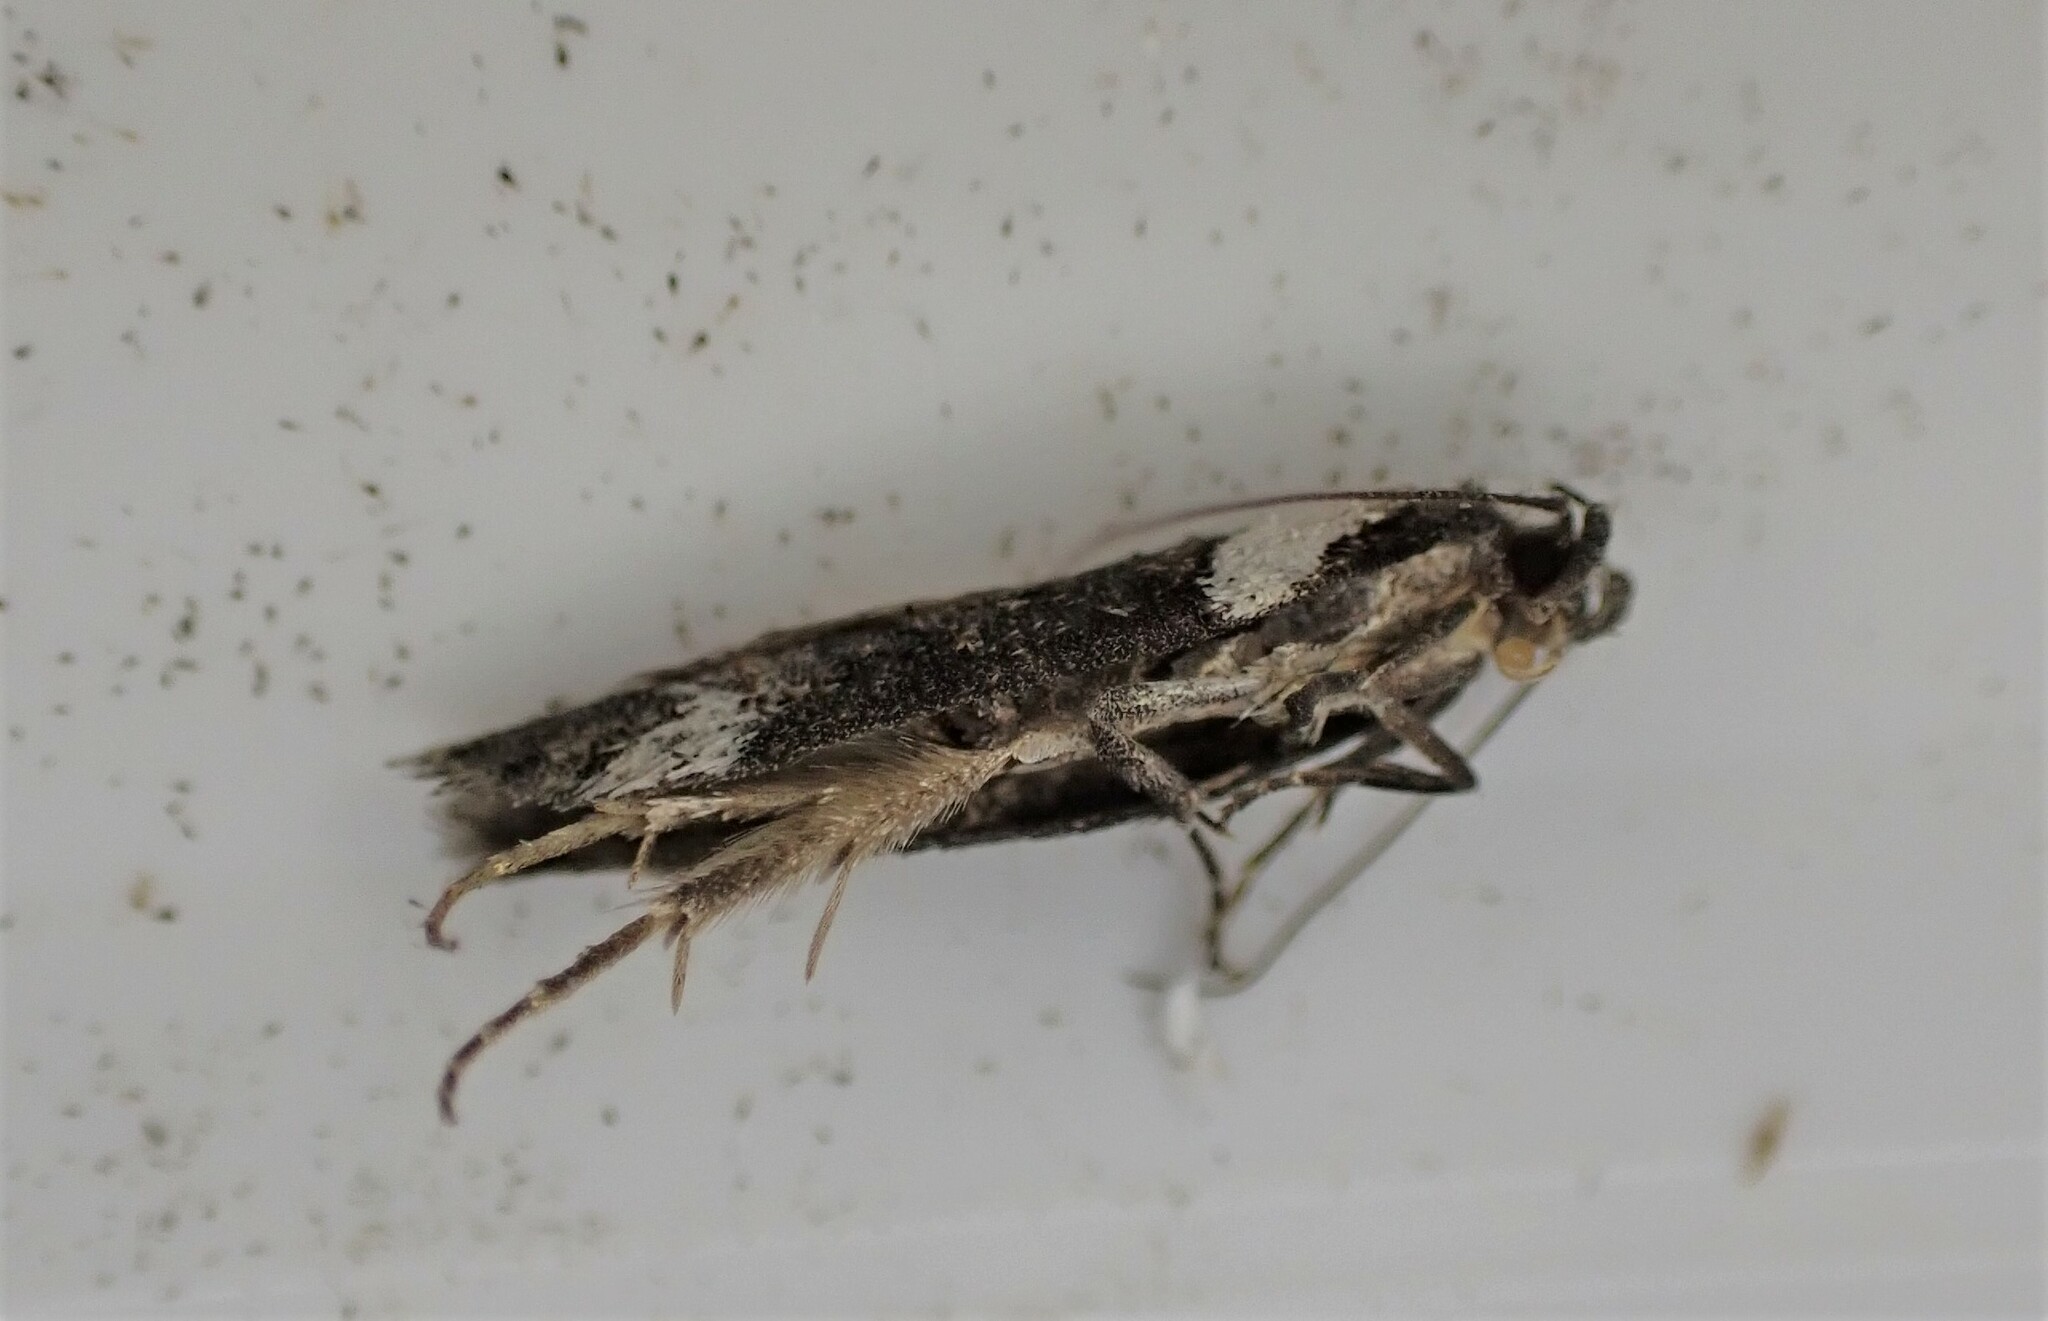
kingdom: Animalia
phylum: Arthropoda
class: Insecta
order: Lepidoptera
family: Oecophoridae
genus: Trachypepla
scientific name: Trachypepla conspicuella
